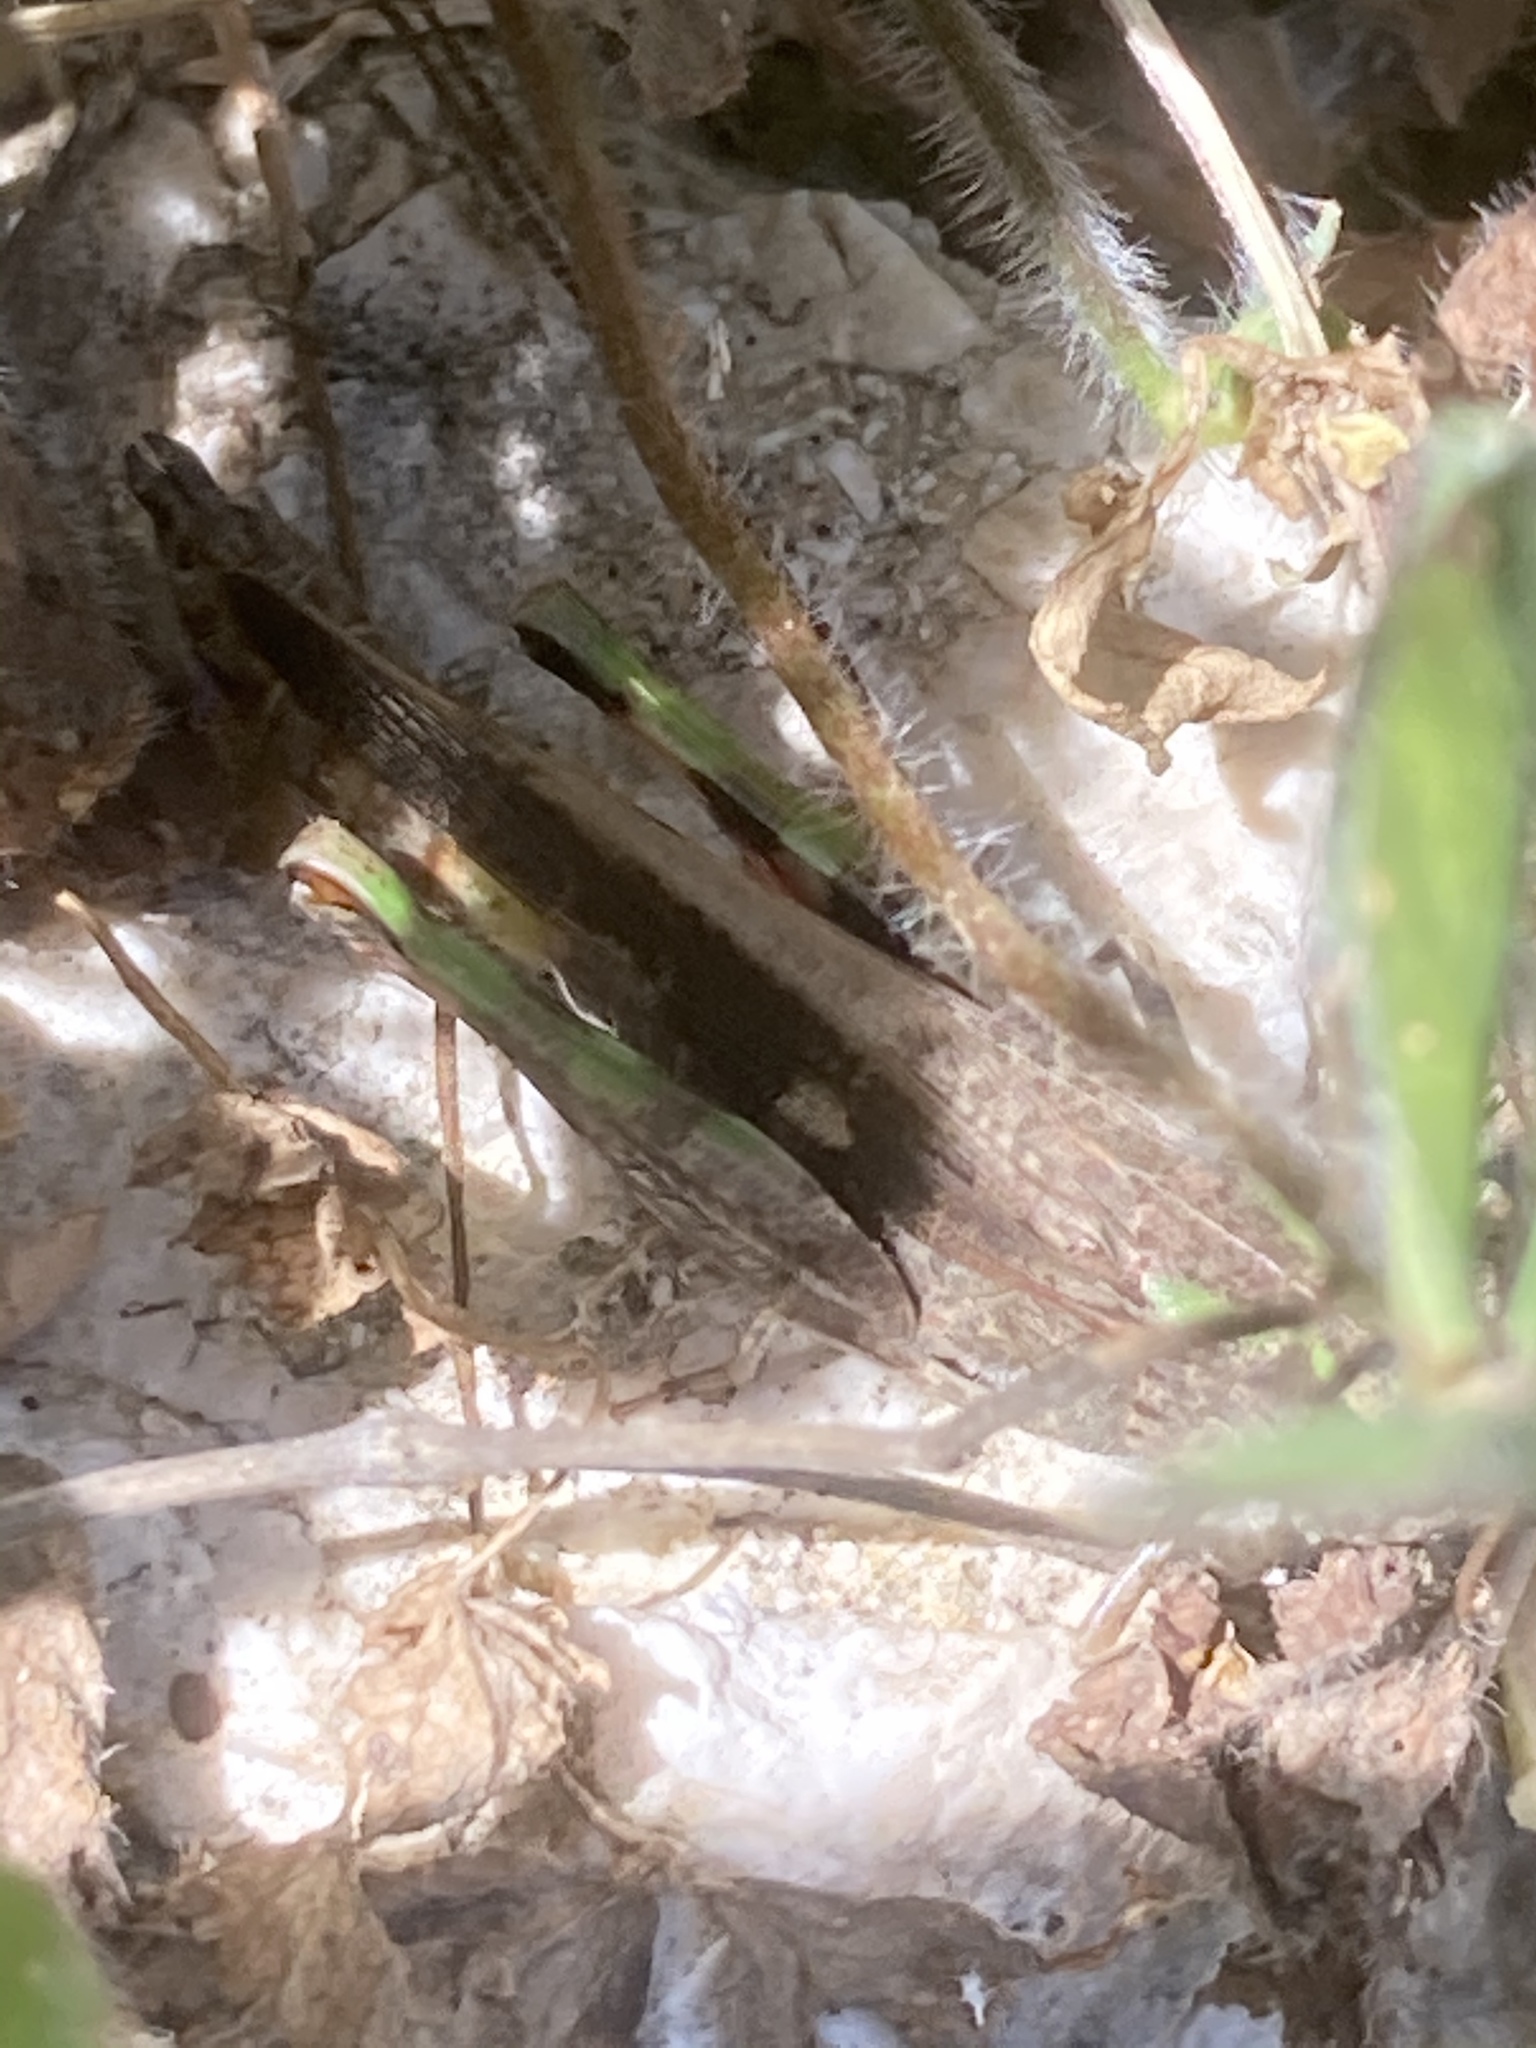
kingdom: Animalia
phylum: Arthropoda
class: Insecta
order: Orthoptera
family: Acrididae
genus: Aiolopus
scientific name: Aiolopus strepens
